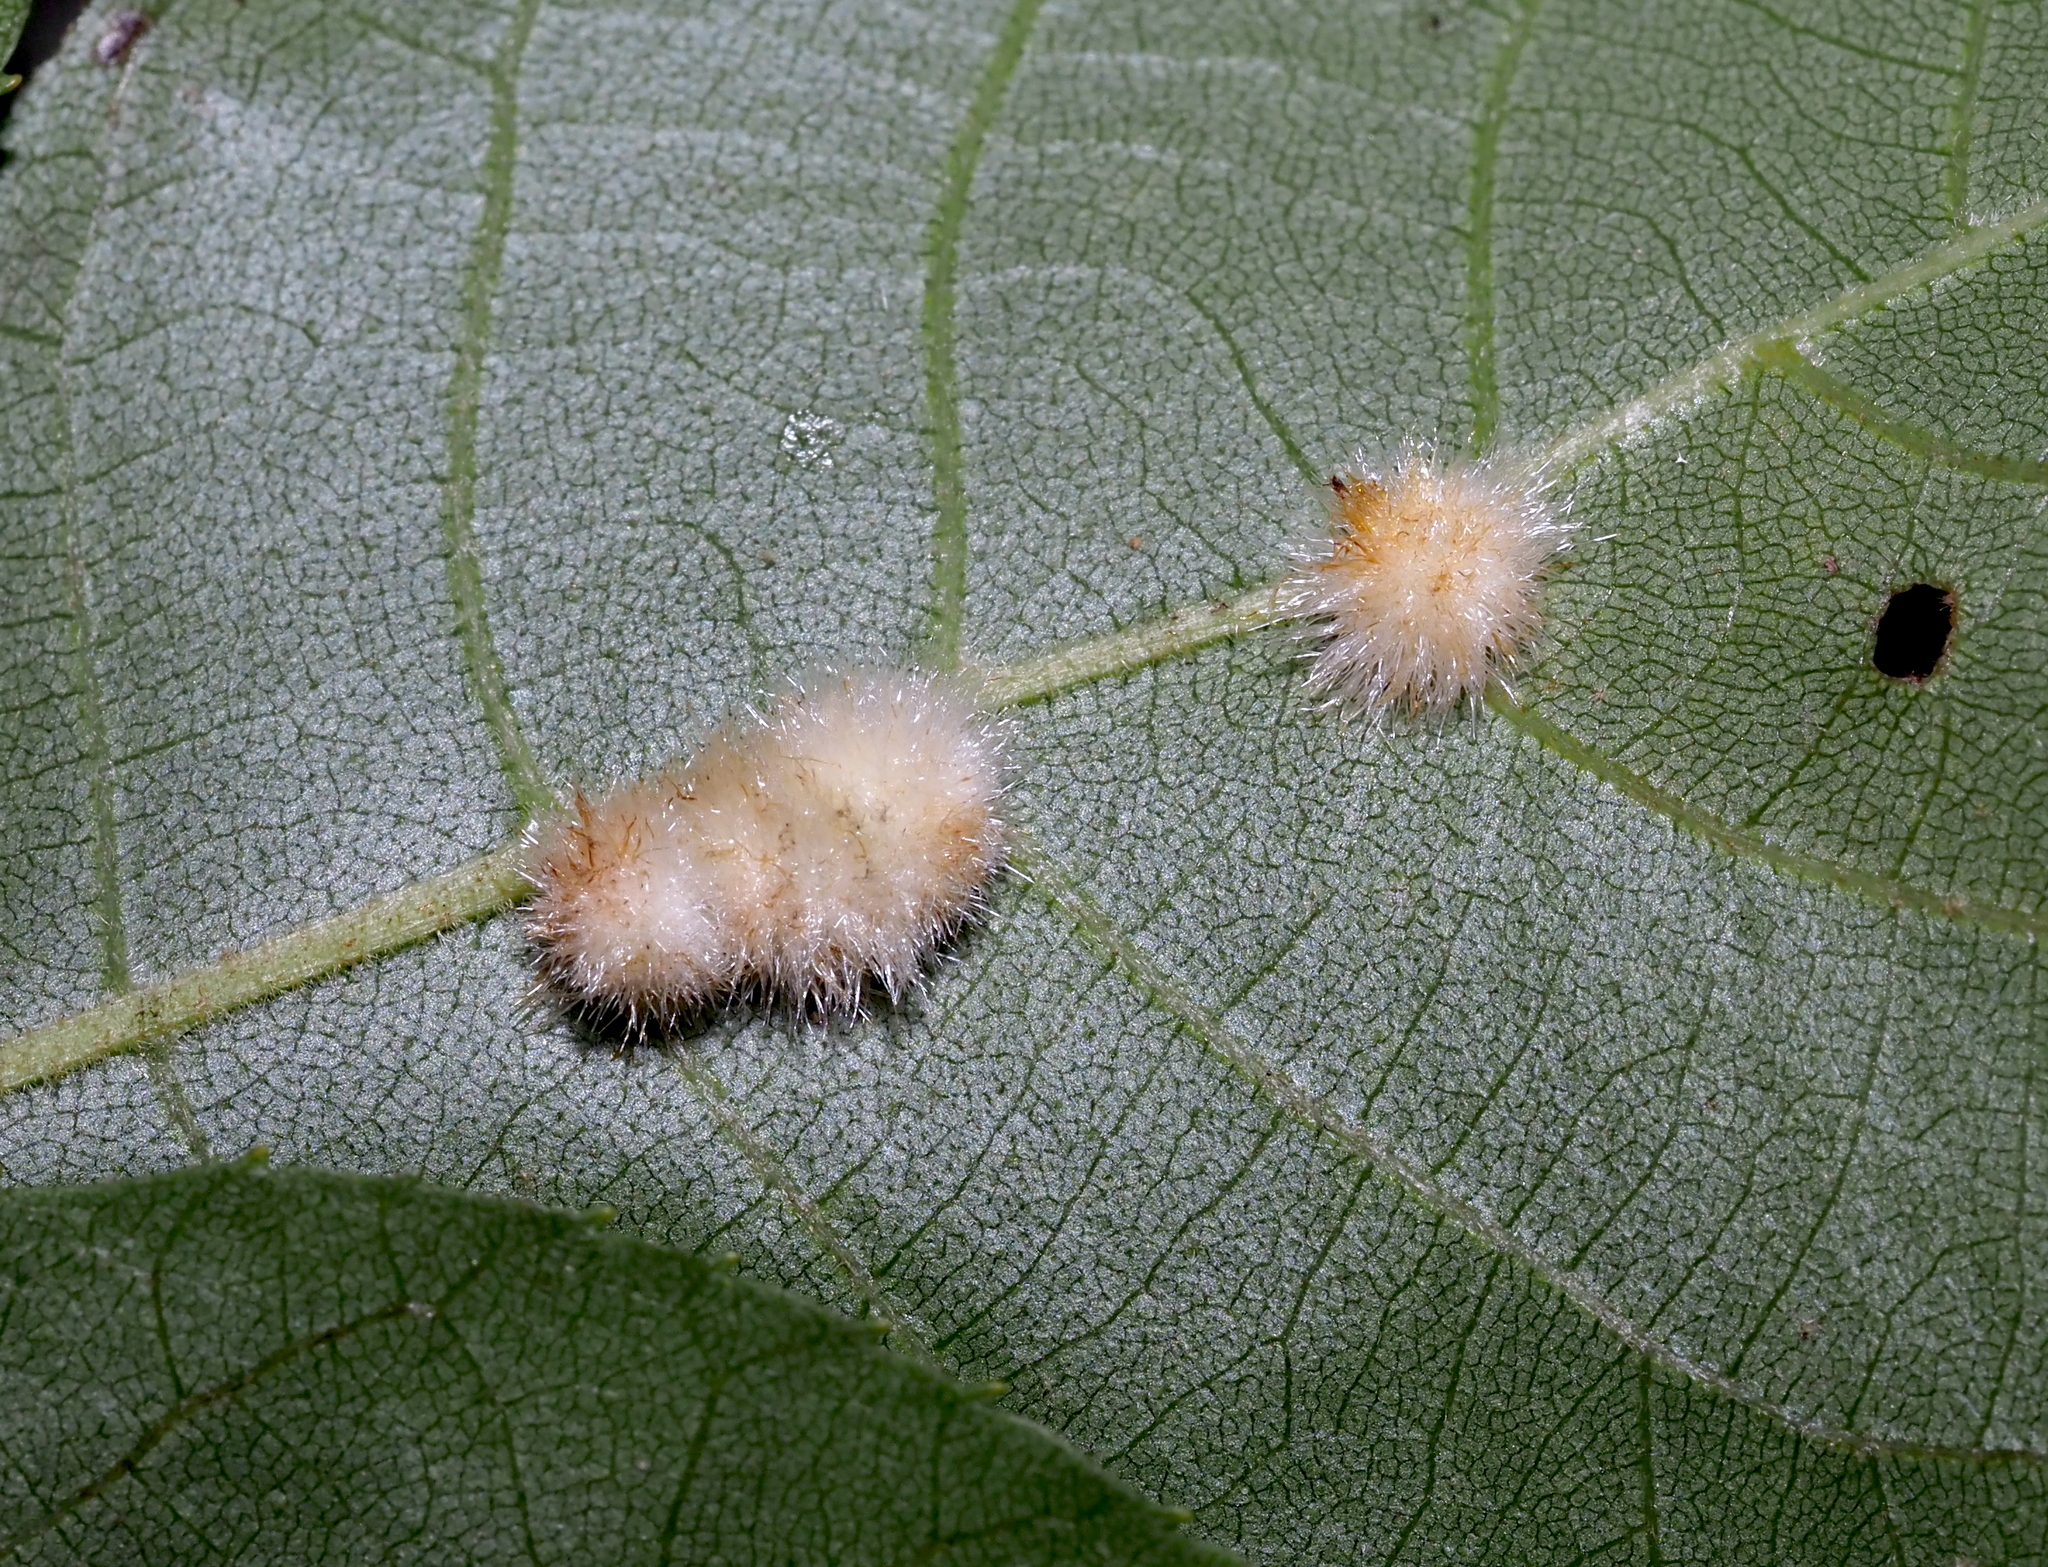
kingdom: Animalia
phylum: Arthropoda
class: Insecta
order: Diptera
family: Cecidomyiidae
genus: Caryomyia
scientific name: Caryomyia aggregata
